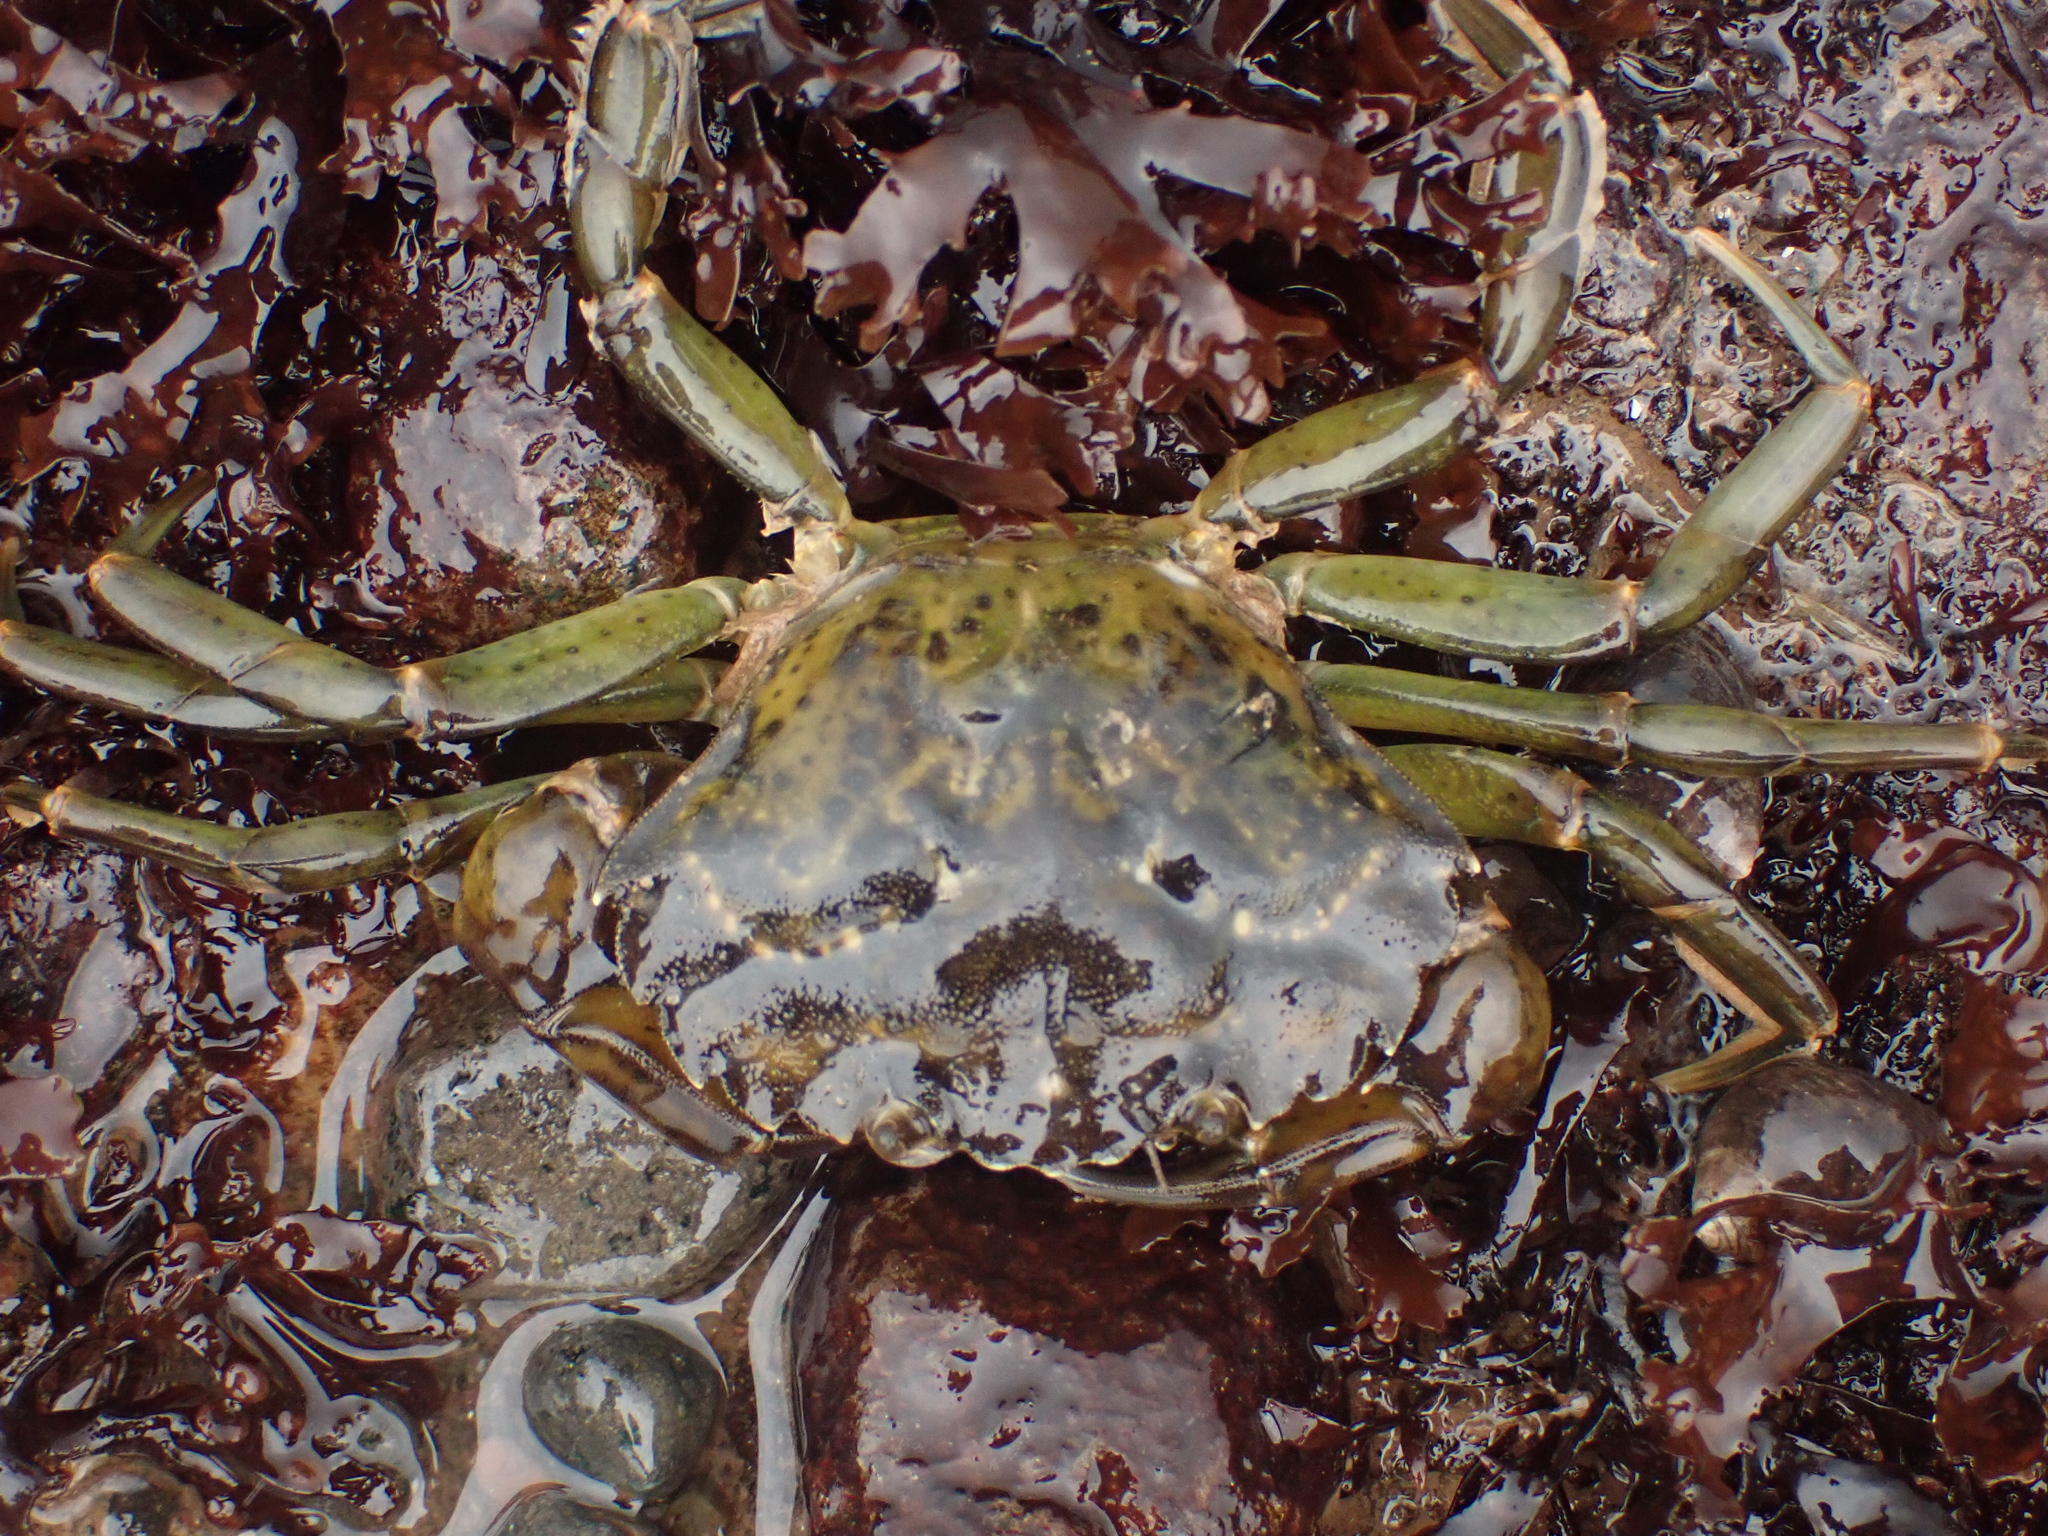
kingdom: Animalia
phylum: Arthropoda
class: Malacostraca
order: Decapoda
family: Carcinidae
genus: Carcinus
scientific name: Carcinus maenas
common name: European green crab
